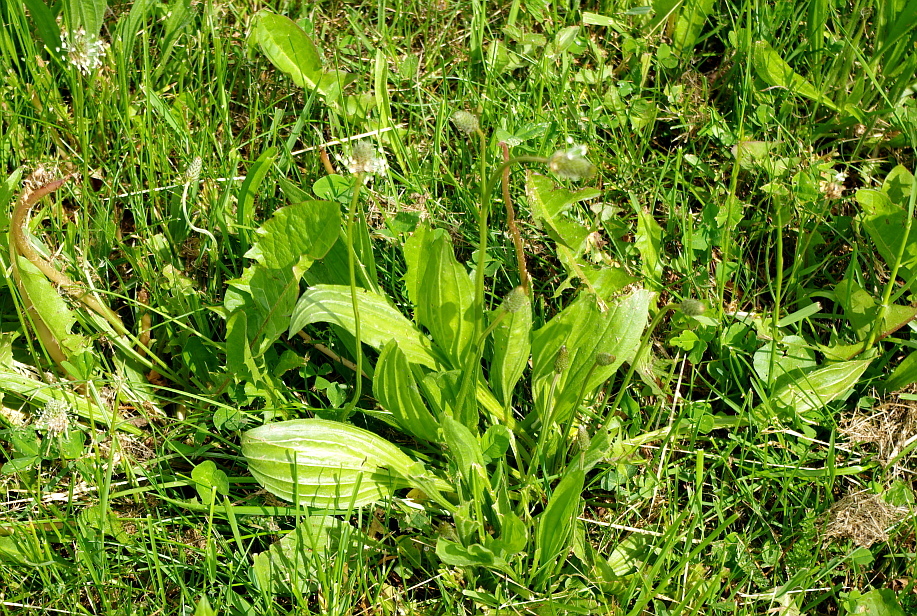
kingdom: Plantae
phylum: Tracheophyta
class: Magnoliopsida
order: Lamiales
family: Plantaginaceae
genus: Plantago
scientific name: Plantago lanceolata
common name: Ribwort plantain
